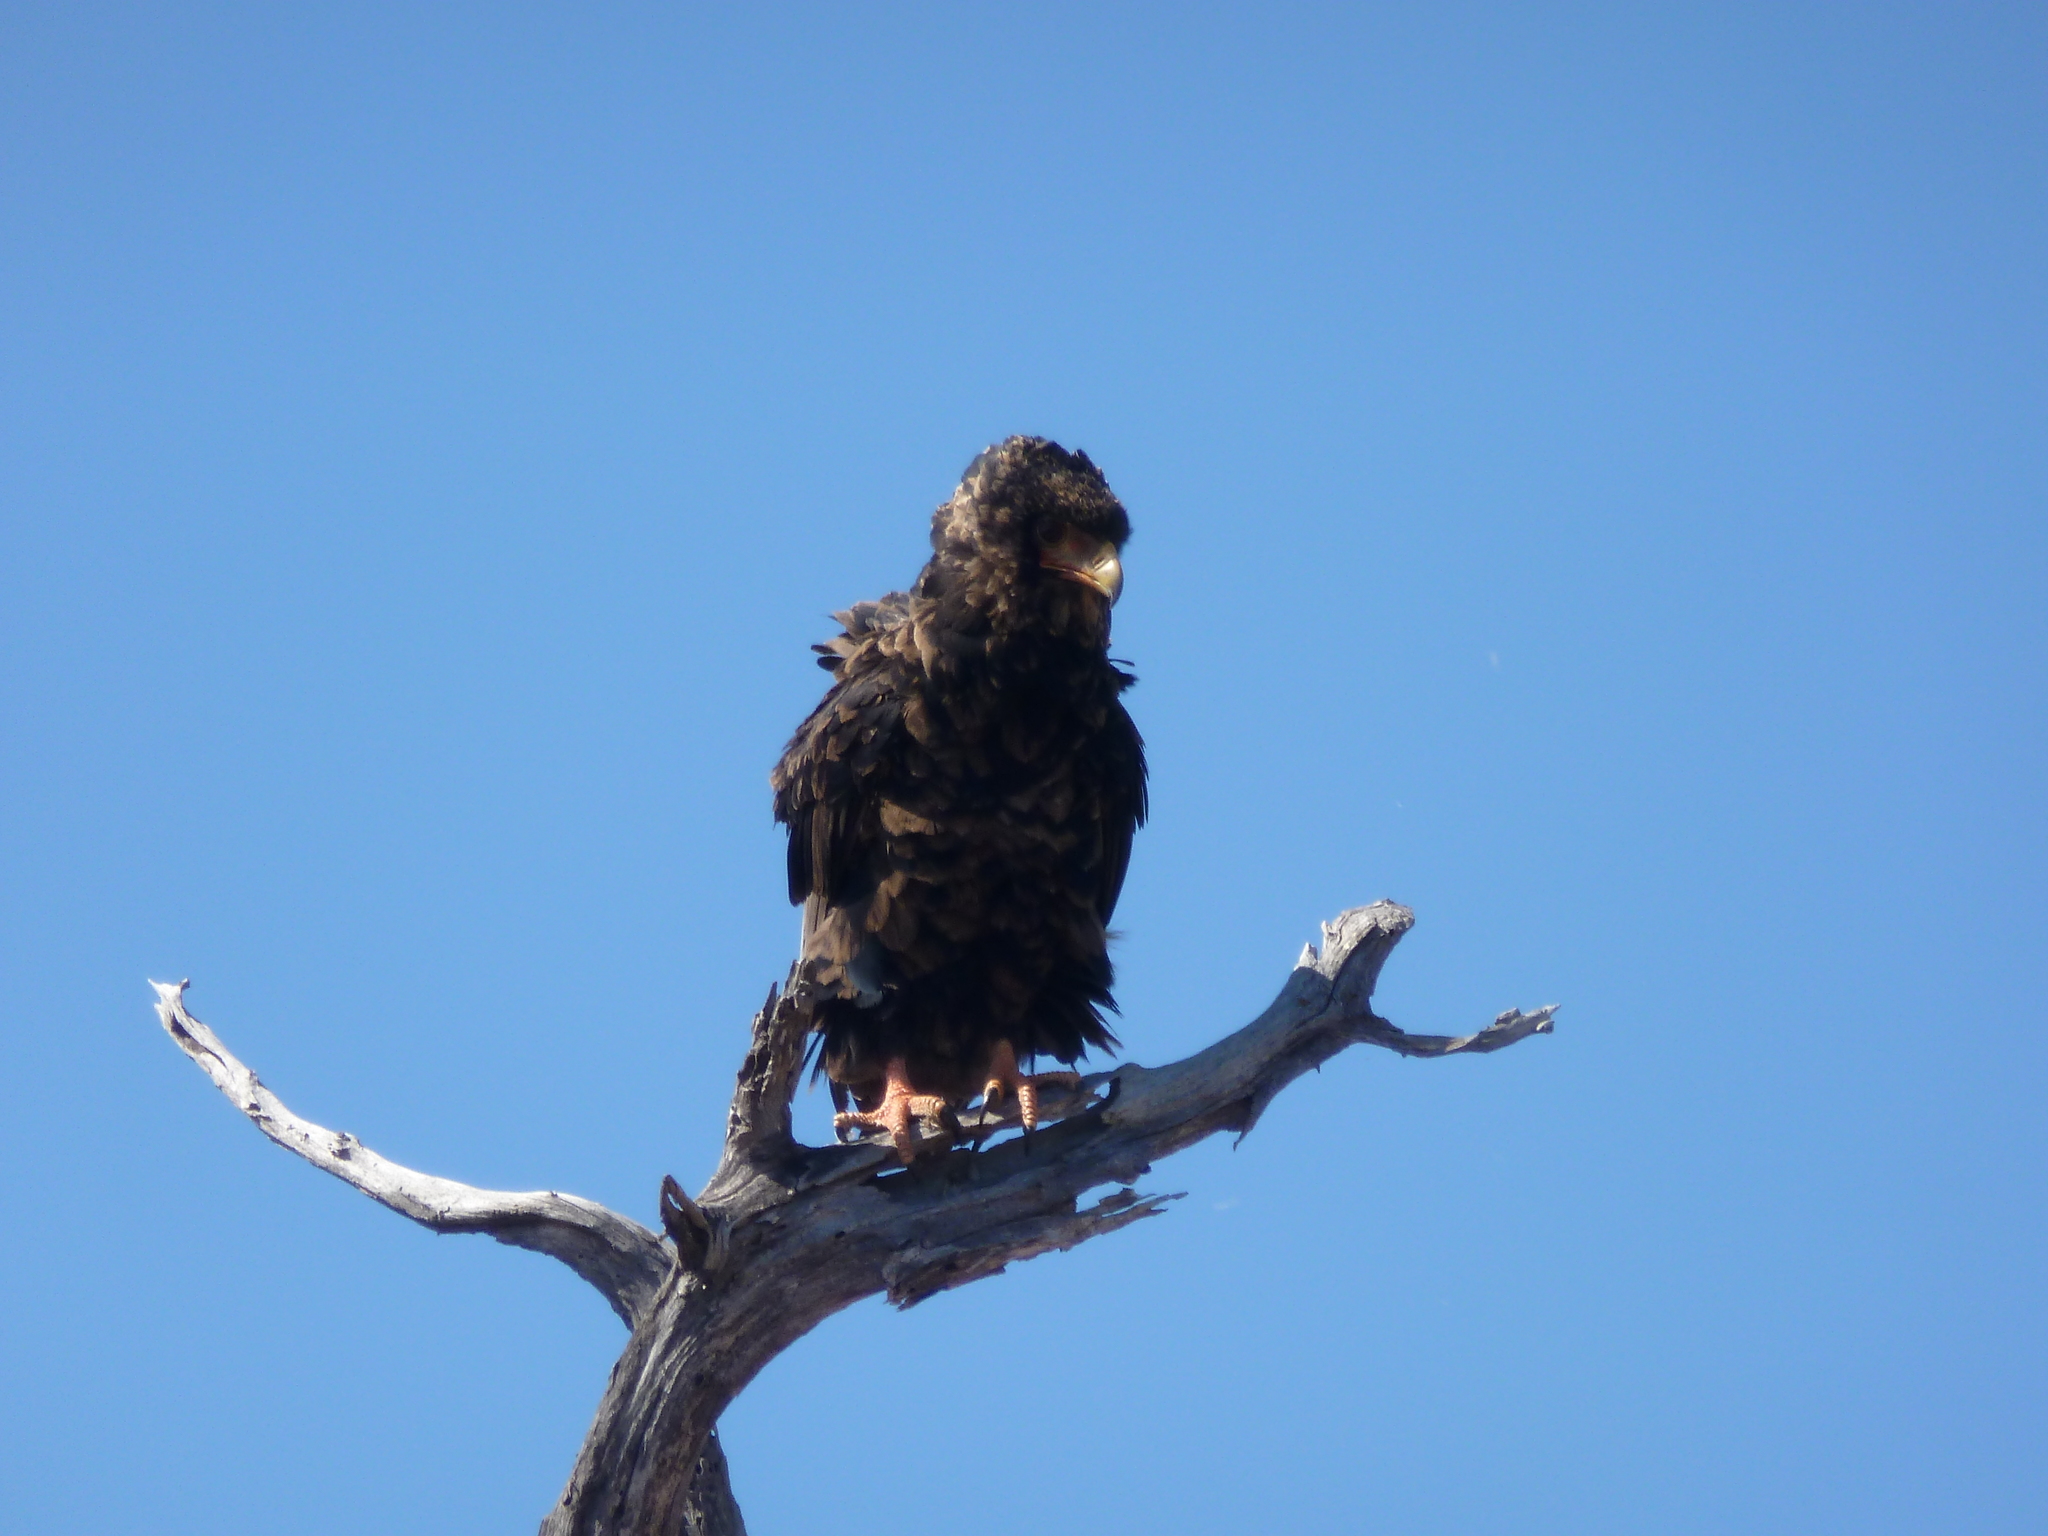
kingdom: Animalia
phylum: Chordata
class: Aves
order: Accipitriformes
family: Accipitridae
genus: Terathopius
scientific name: Terathopius ecaudatus
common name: Bateleur
